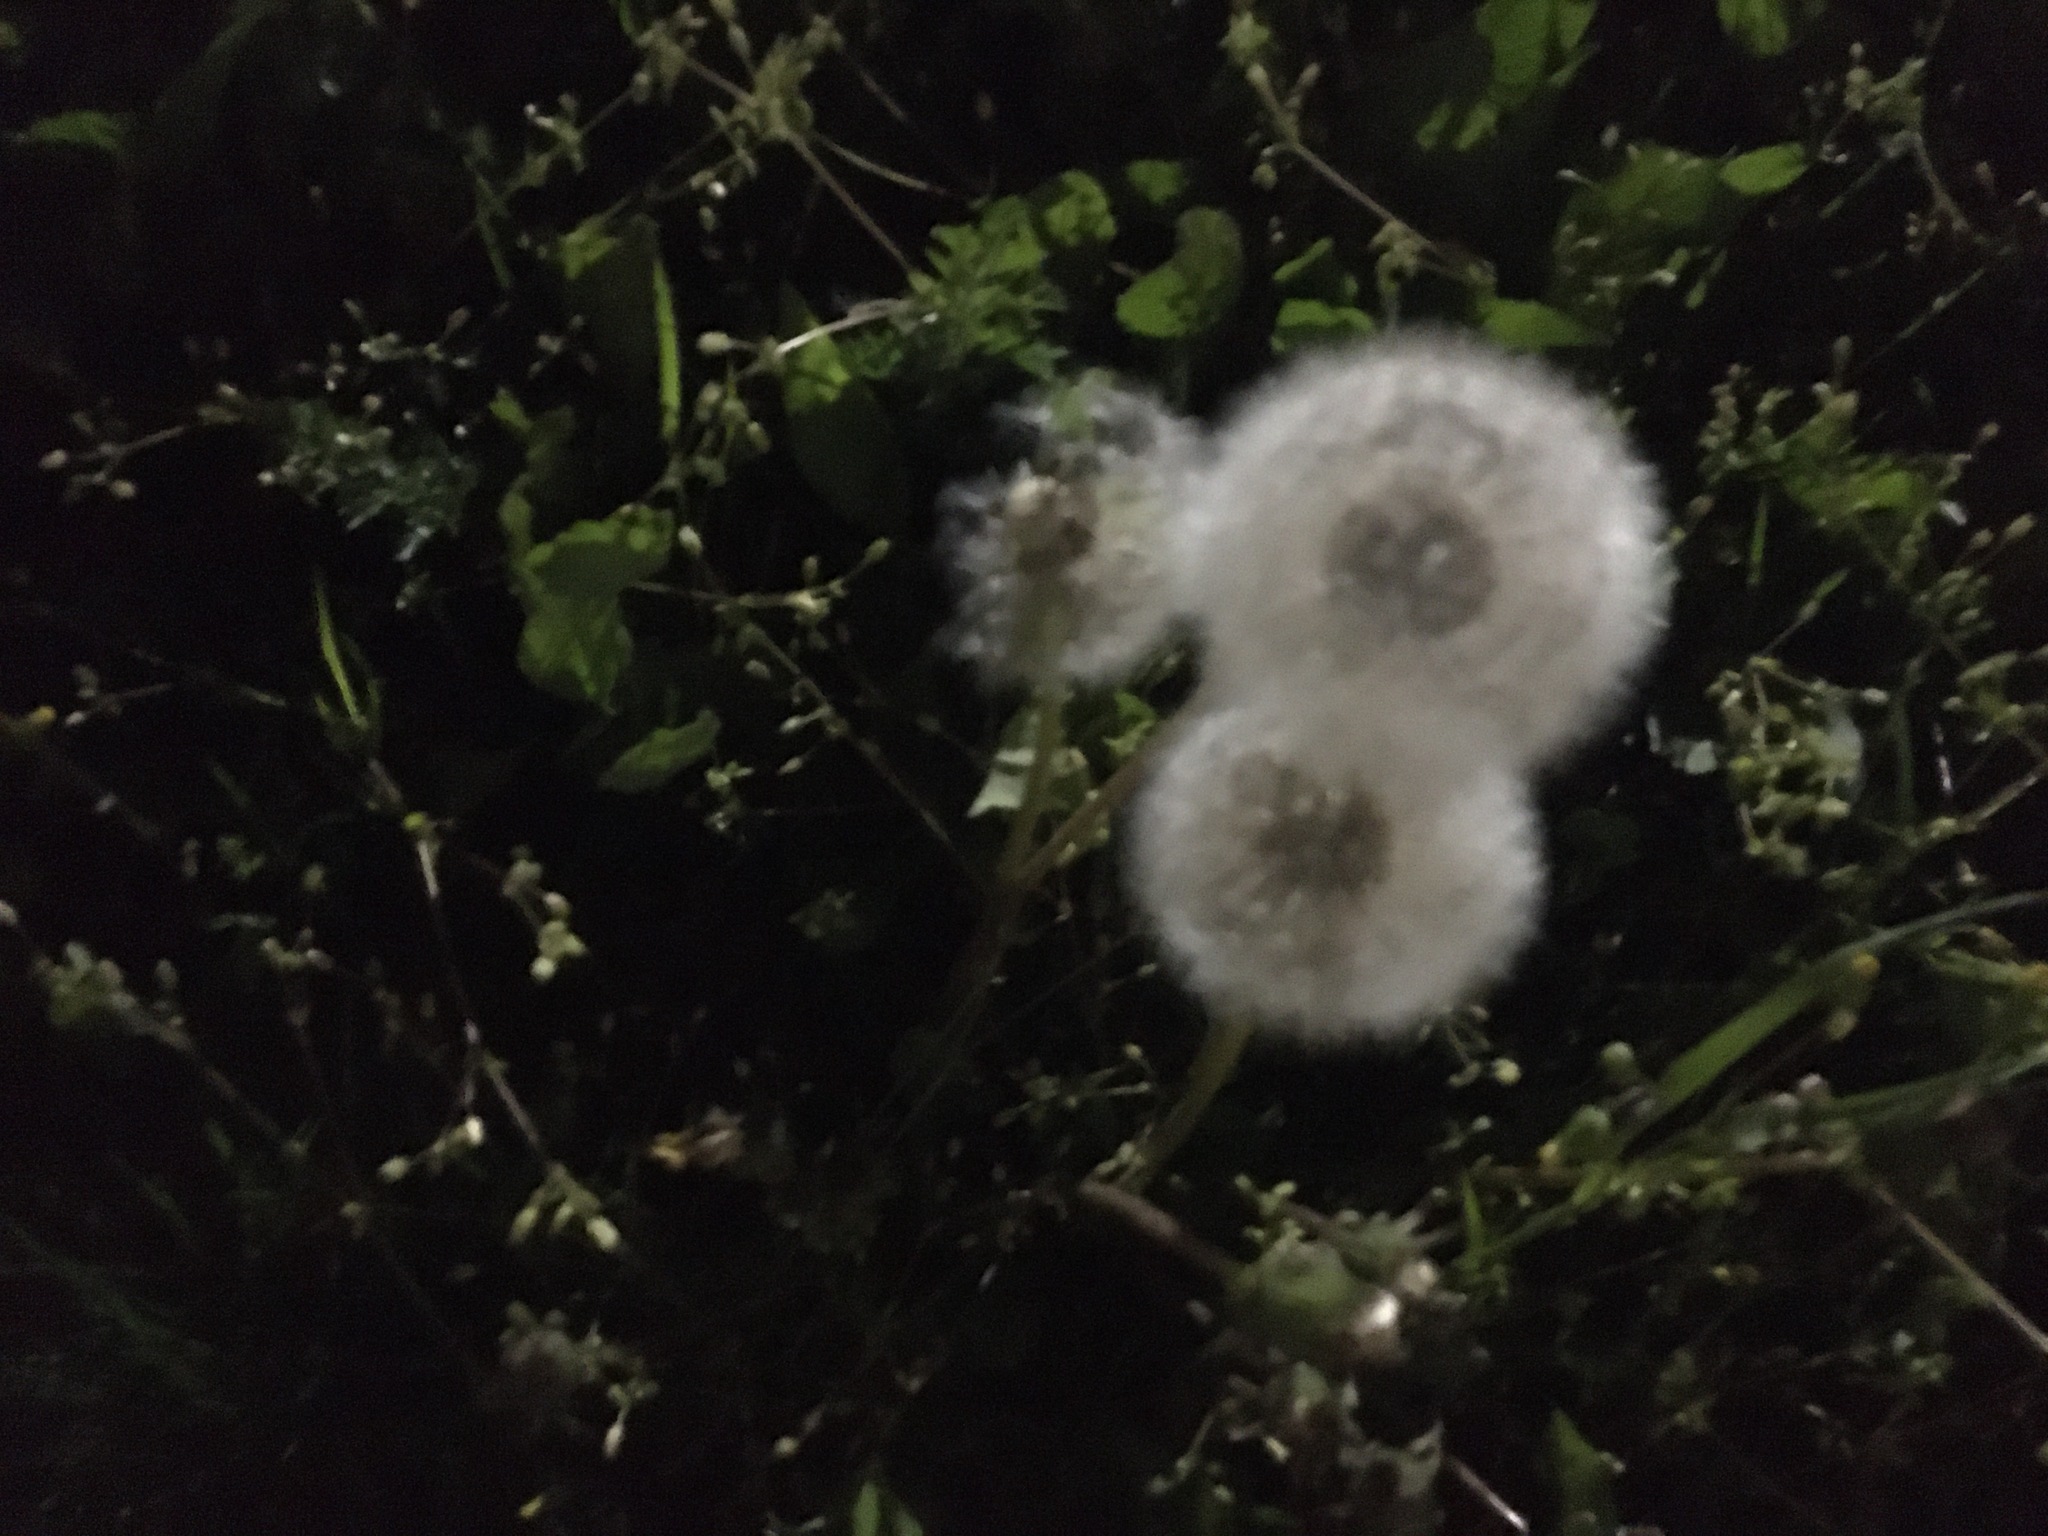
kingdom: Plantae
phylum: Tracheophyta
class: Magnoliopsida
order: Asterales
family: Asteraceae
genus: Taraxacum
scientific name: Taraxacum officinale
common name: Common dandelion
